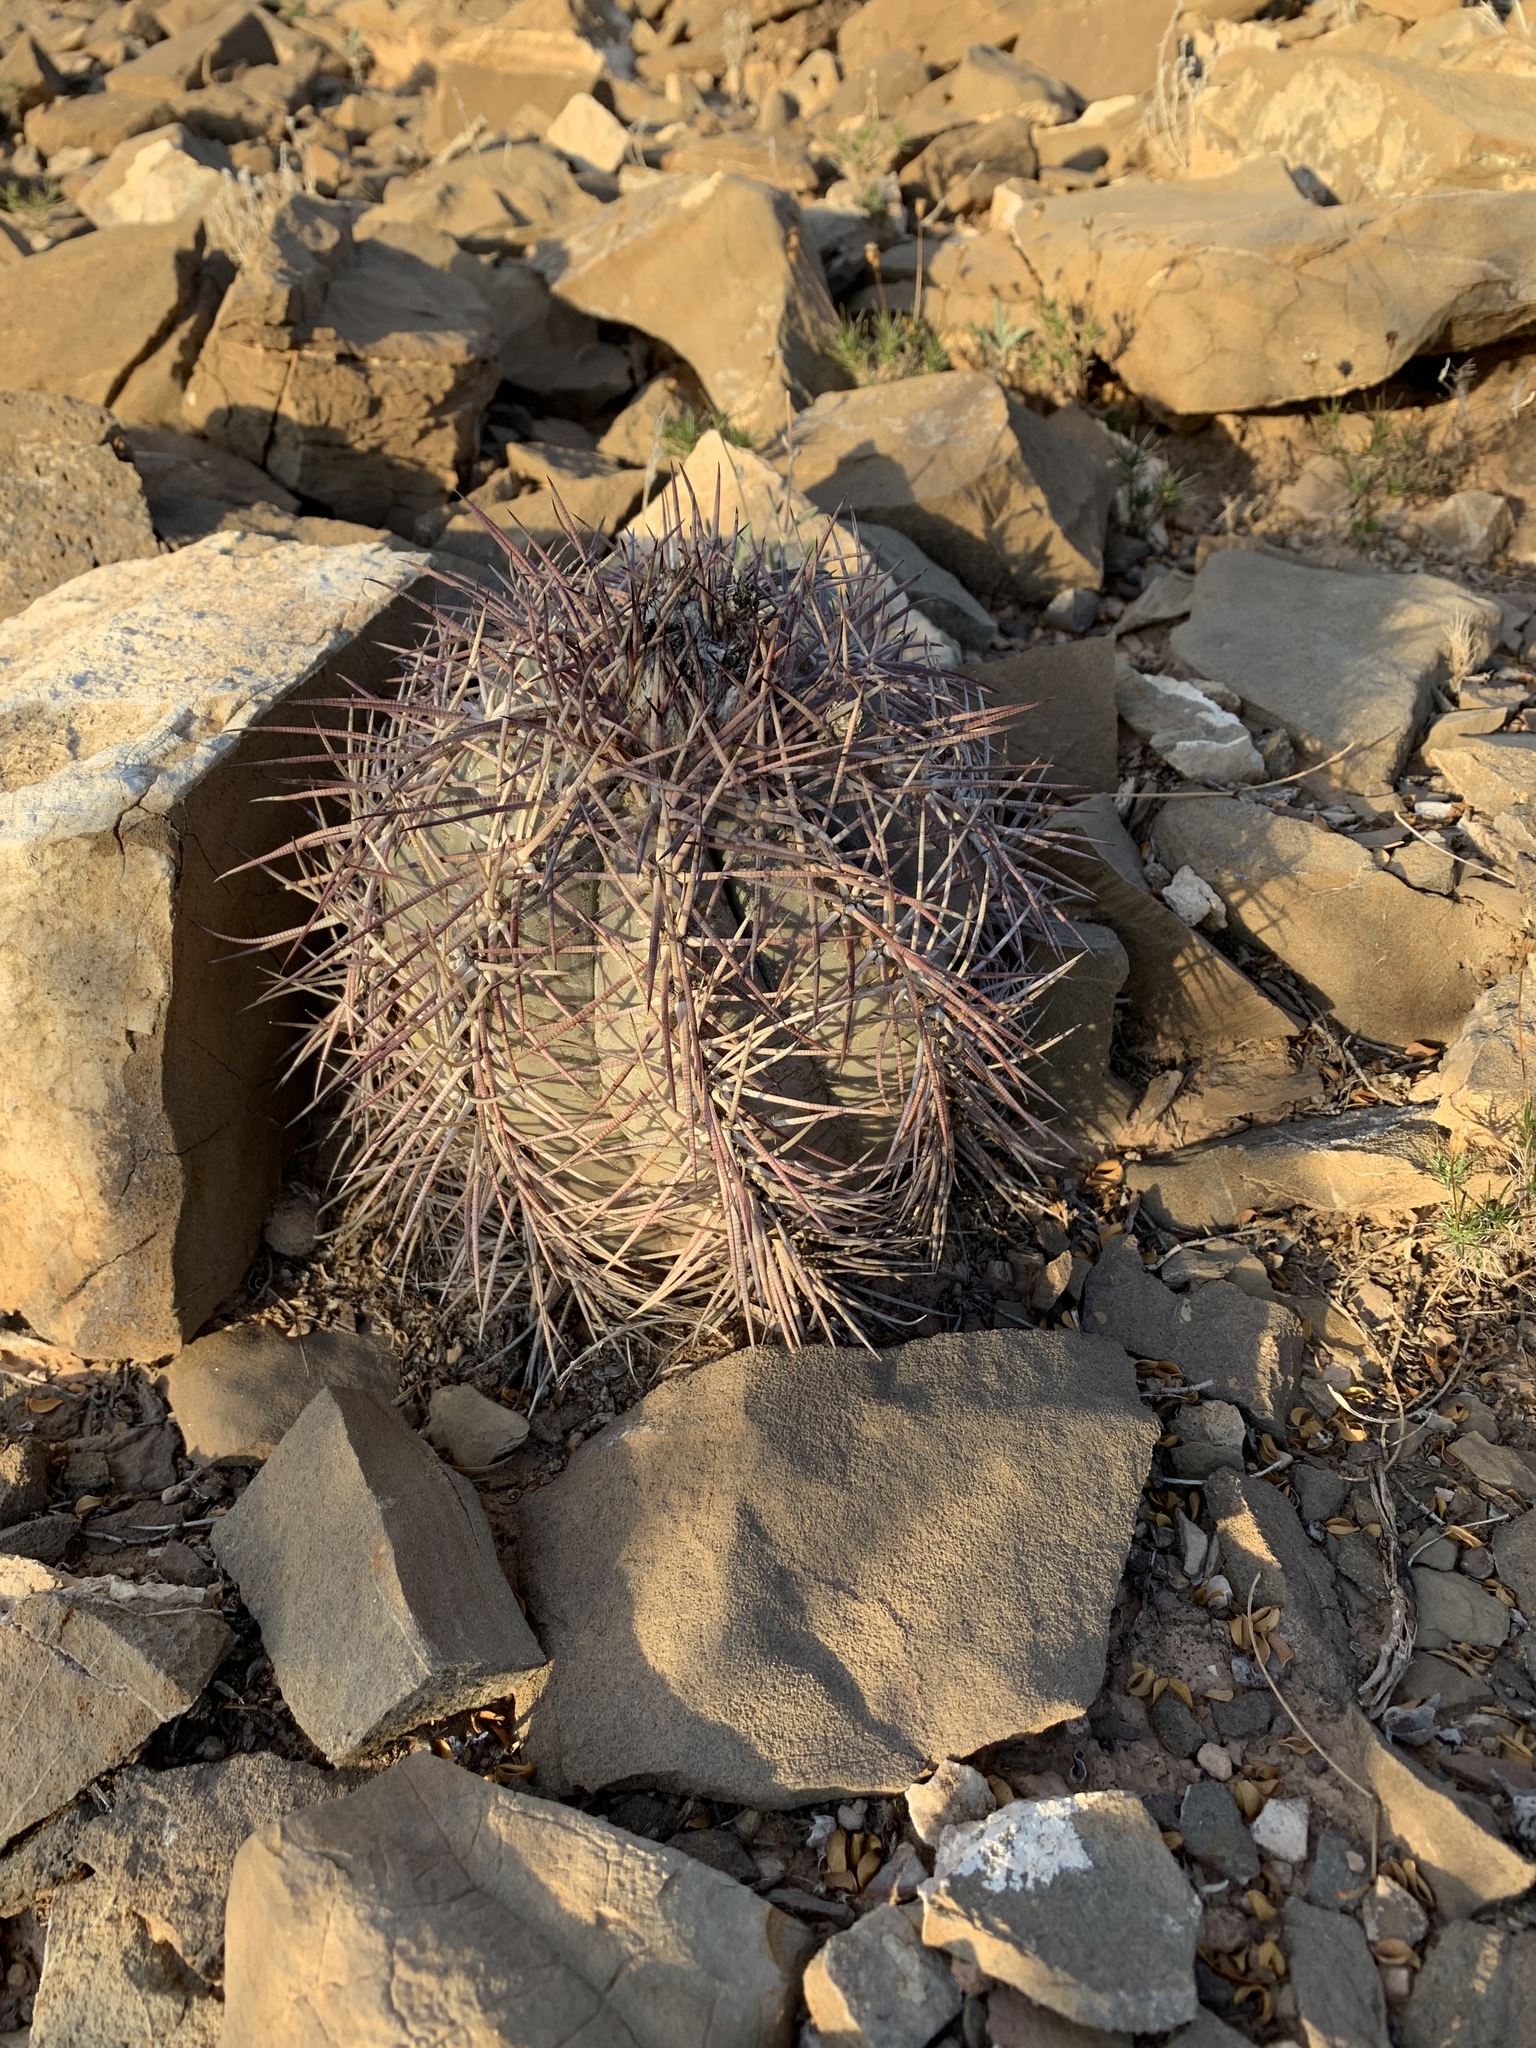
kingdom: Plantae
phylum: Tracheophyta
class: Magnoliopsida
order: Caryophyllales
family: Cactaceae
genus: Echinocactus
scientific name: Echinocactus horizonthalonius
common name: Devilshead
